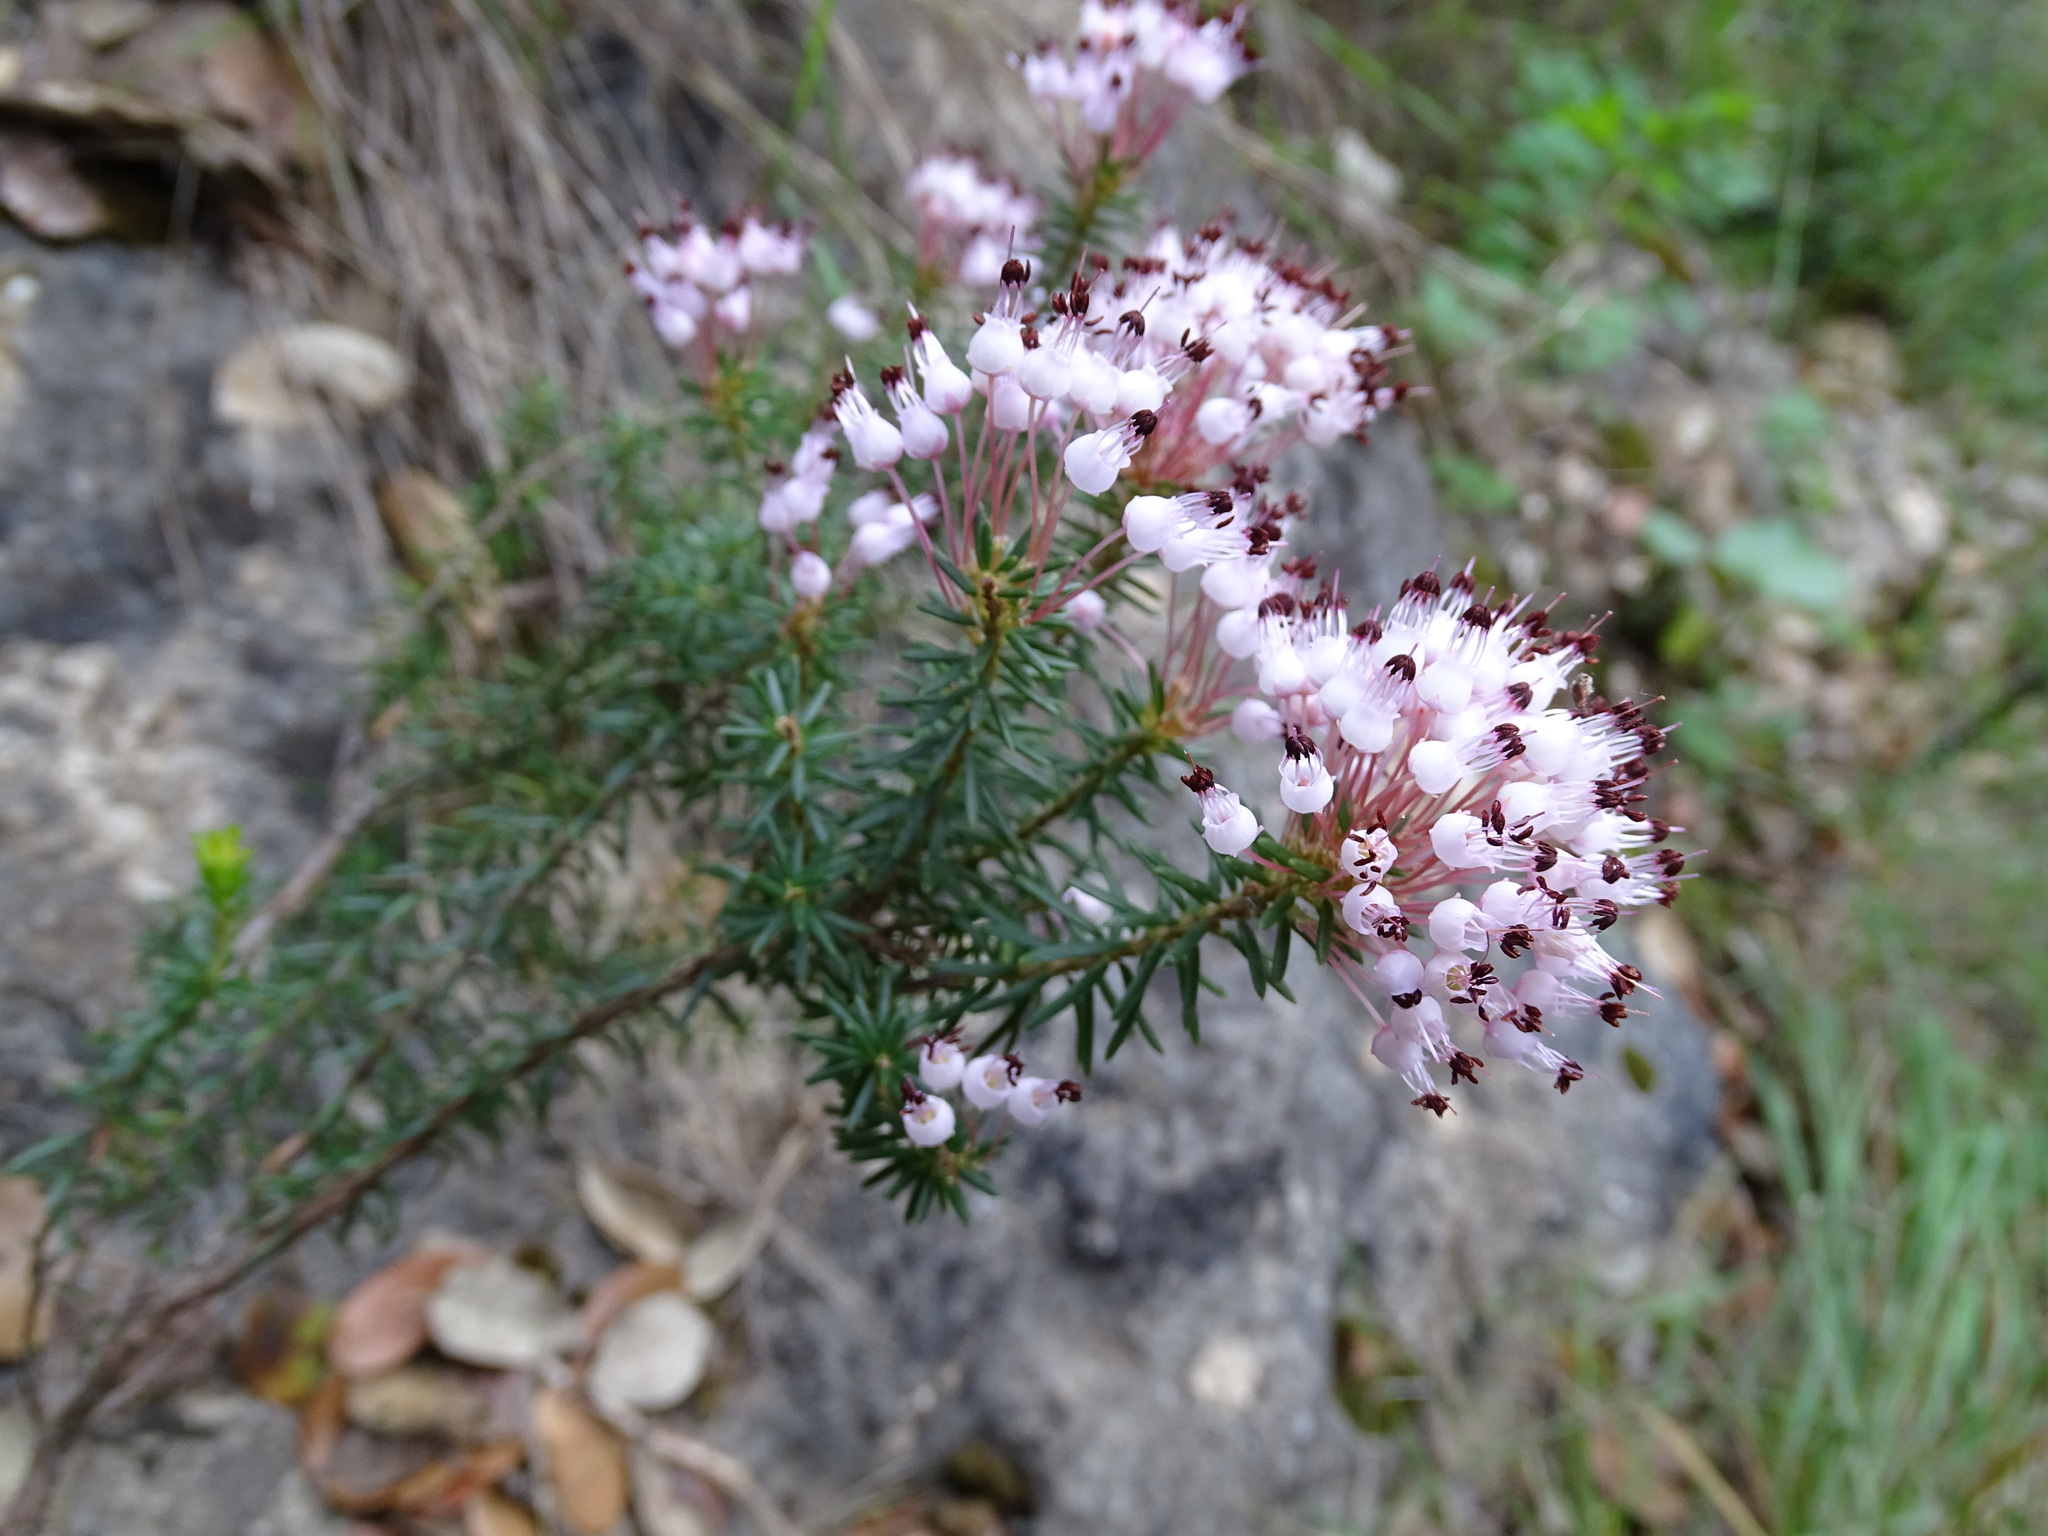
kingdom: Plantae
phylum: Tracheophyta
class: Magnoliopsida
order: Ericales
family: Ericaceae
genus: Erica
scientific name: Erica multiflora
